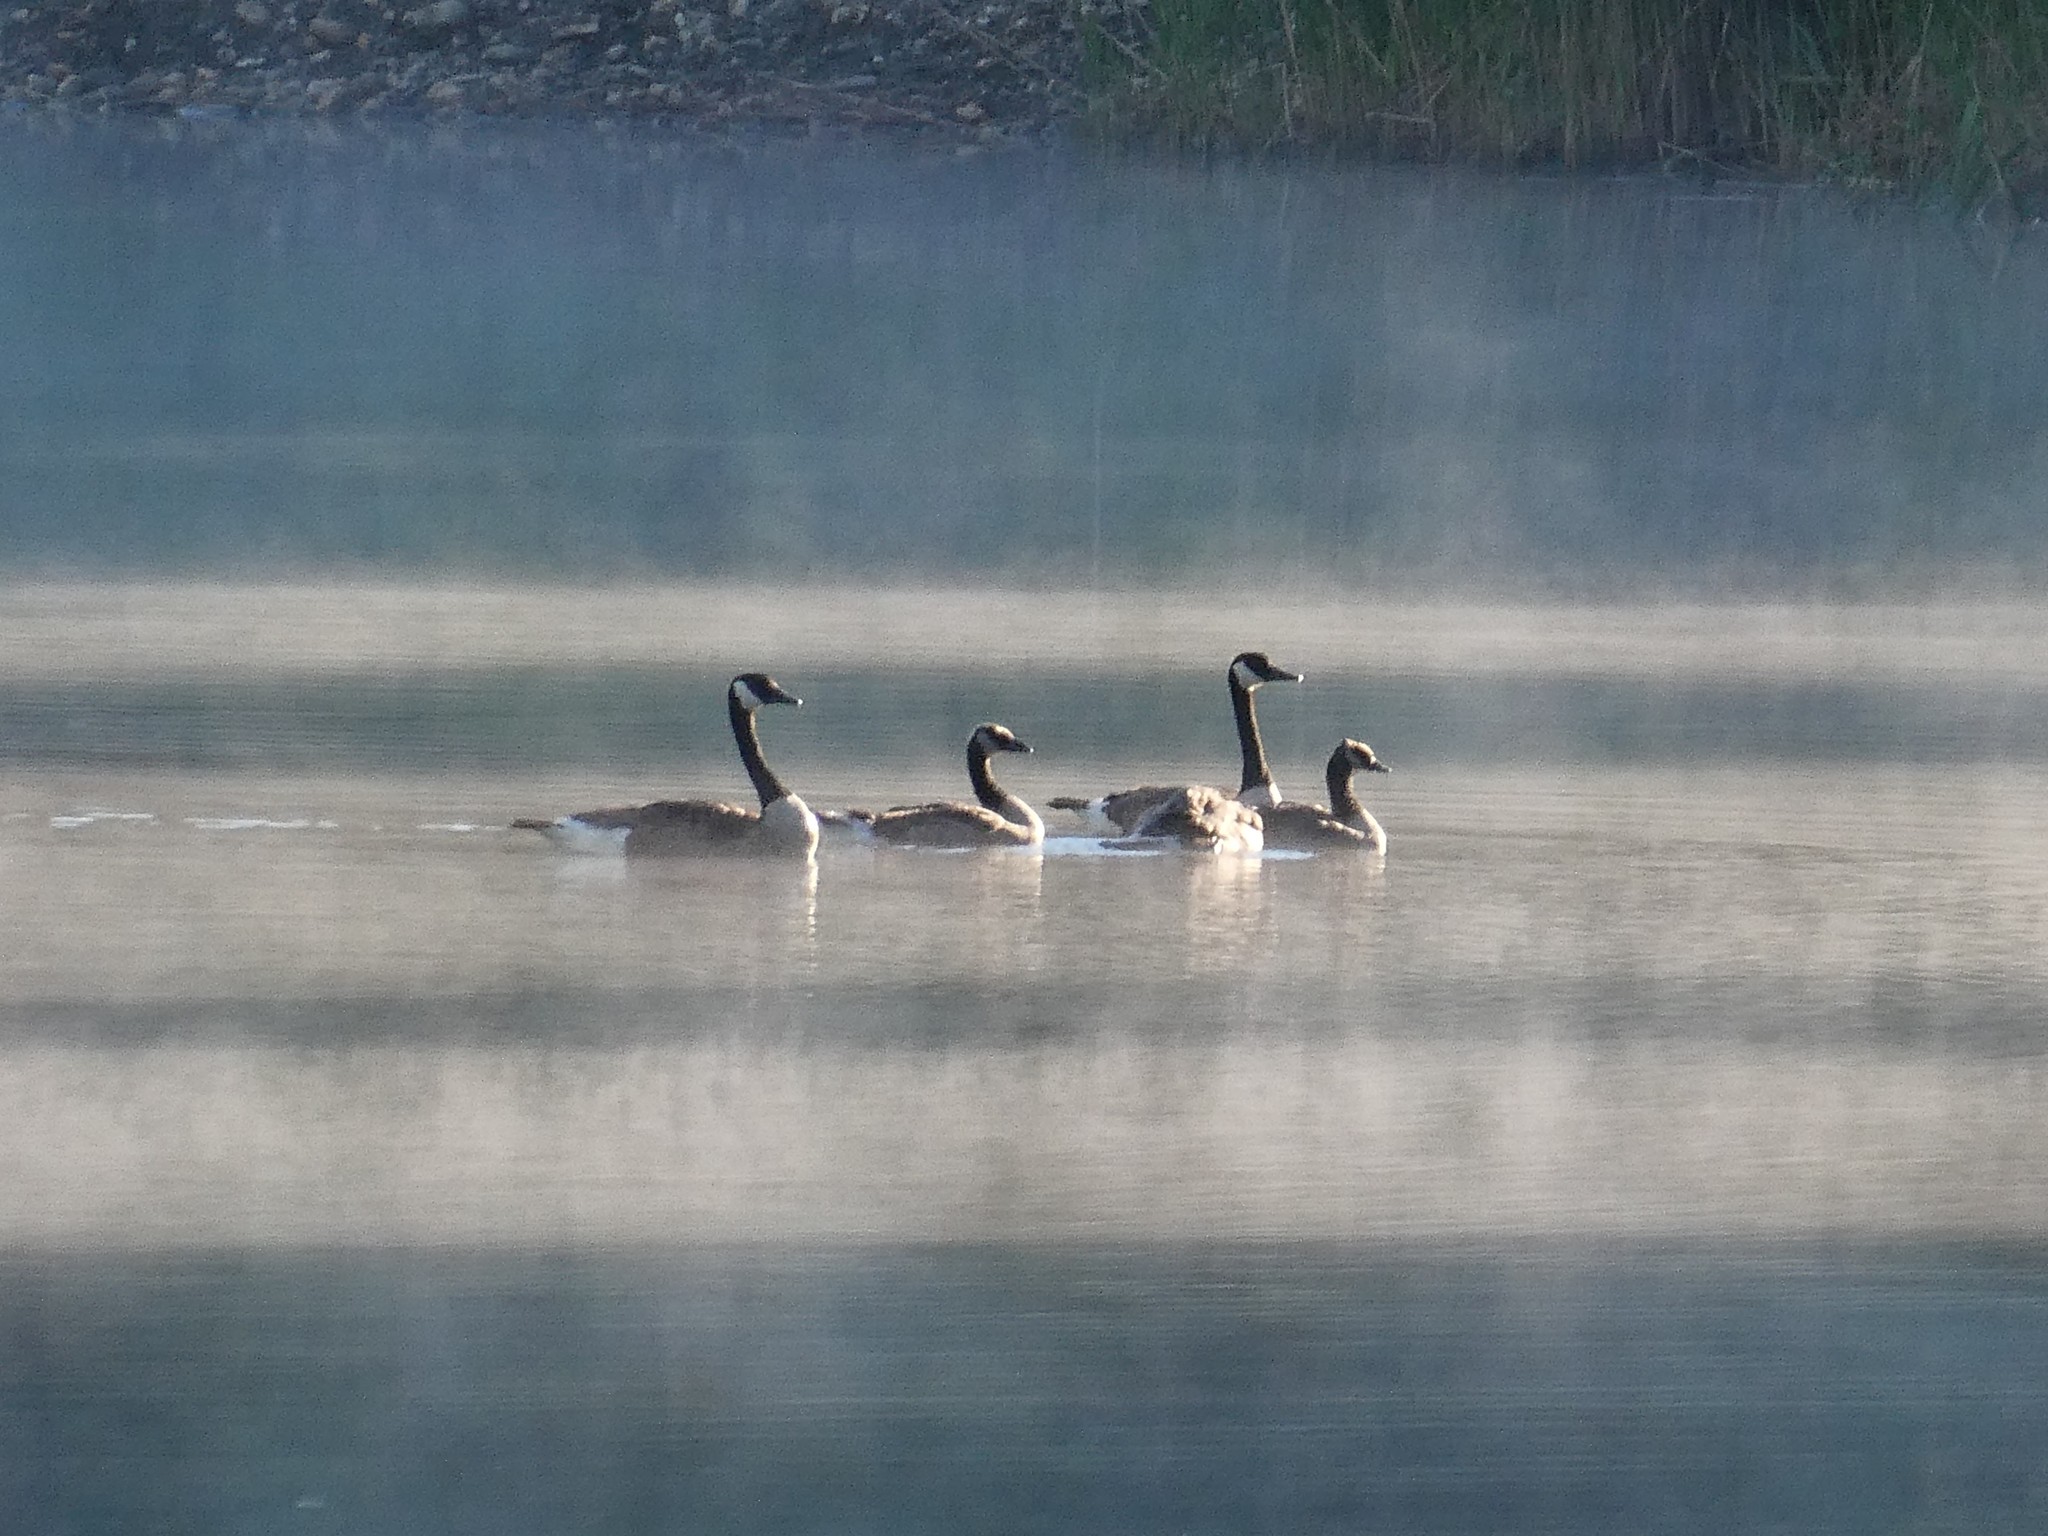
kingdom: Animalia
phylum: Chordata
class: Aves
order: Anseriformes
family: Anatidae
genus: Branta
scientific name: Branta canadensis
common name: Canada goose
